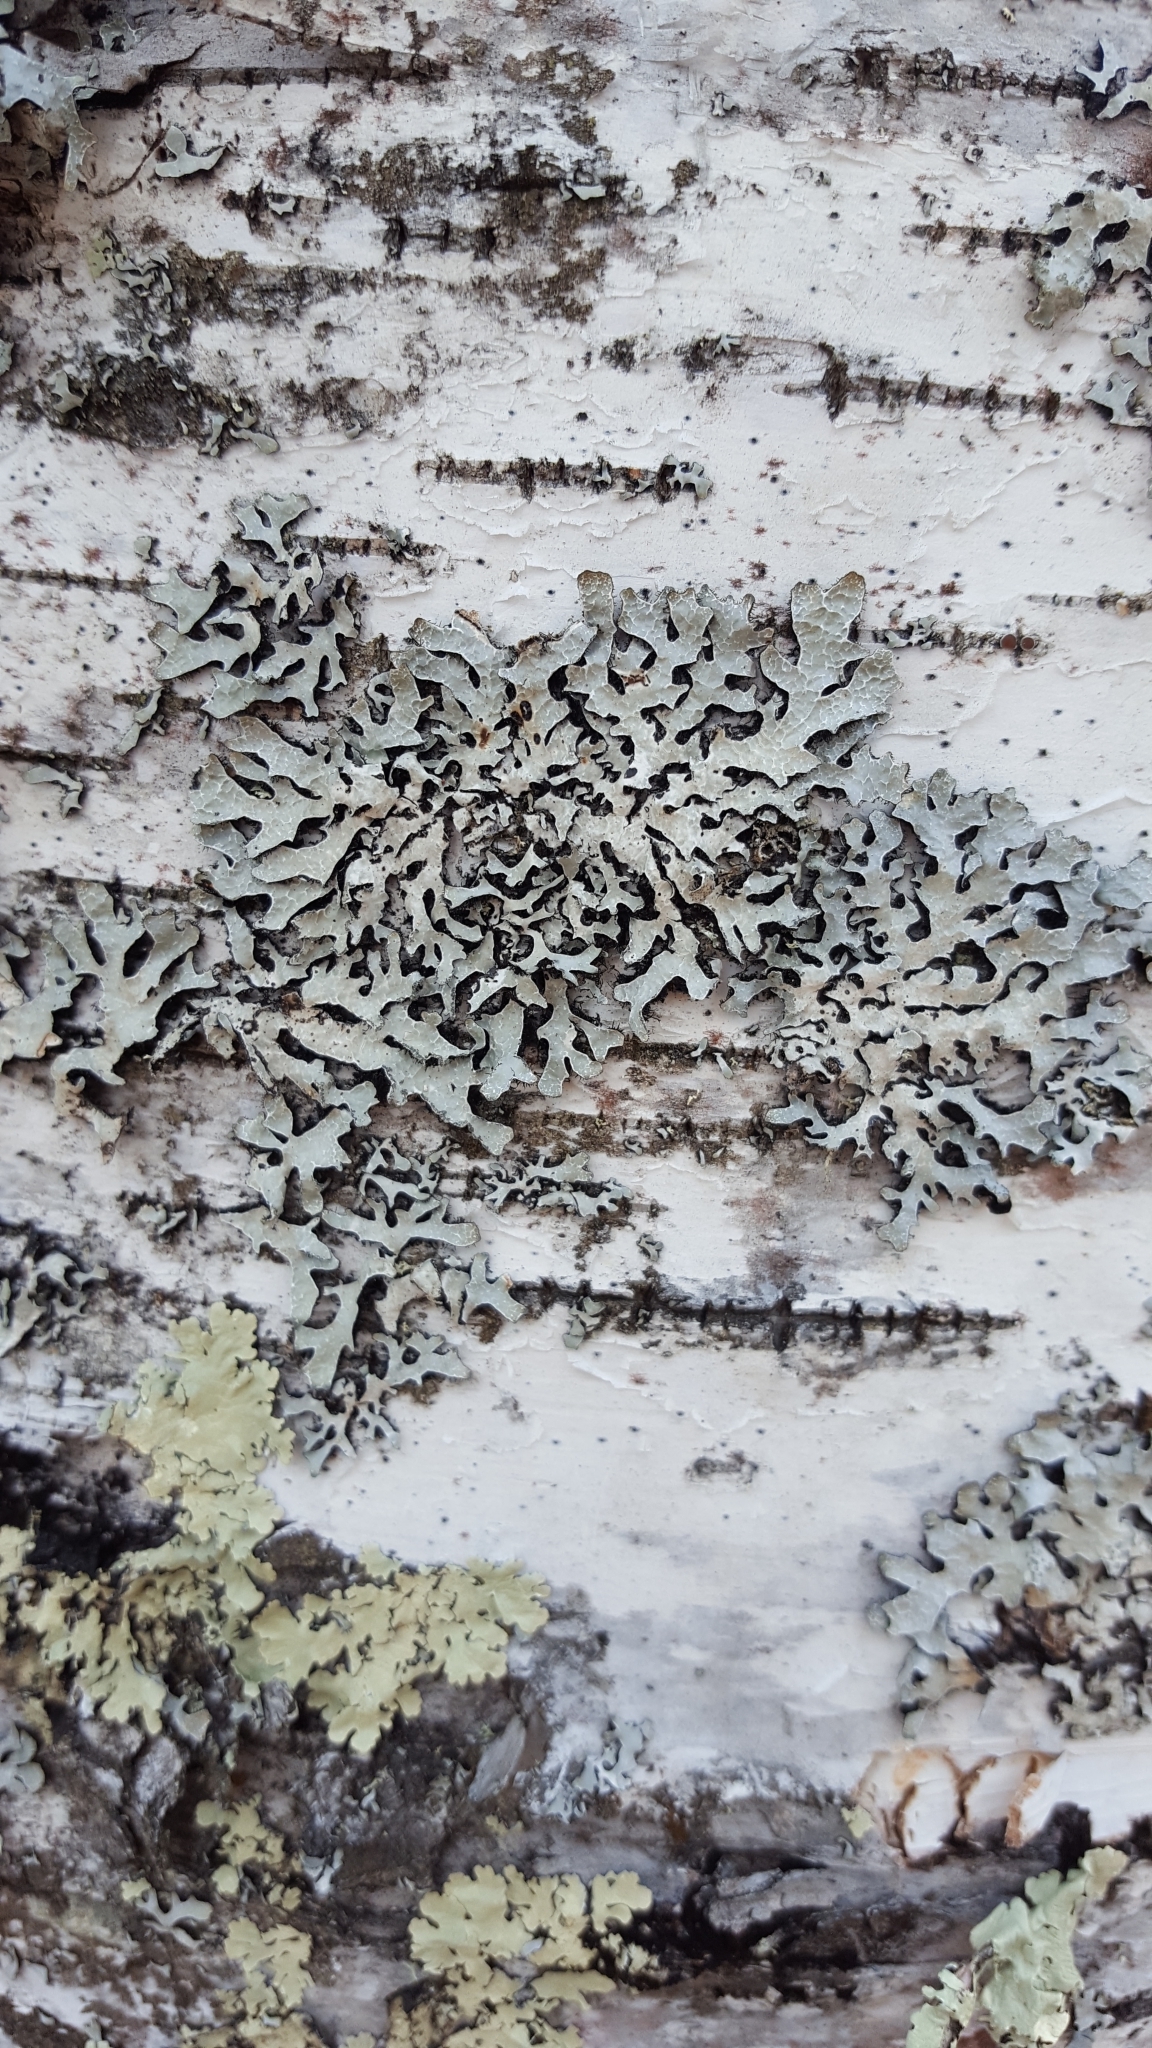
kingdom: Fungi
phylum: Ascomycota
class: Lecanoromycetes
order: Lecanorales
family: Parmeliaceae
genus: Parmelia
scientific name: Parmelia sulcata
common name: Netted shield lichen
